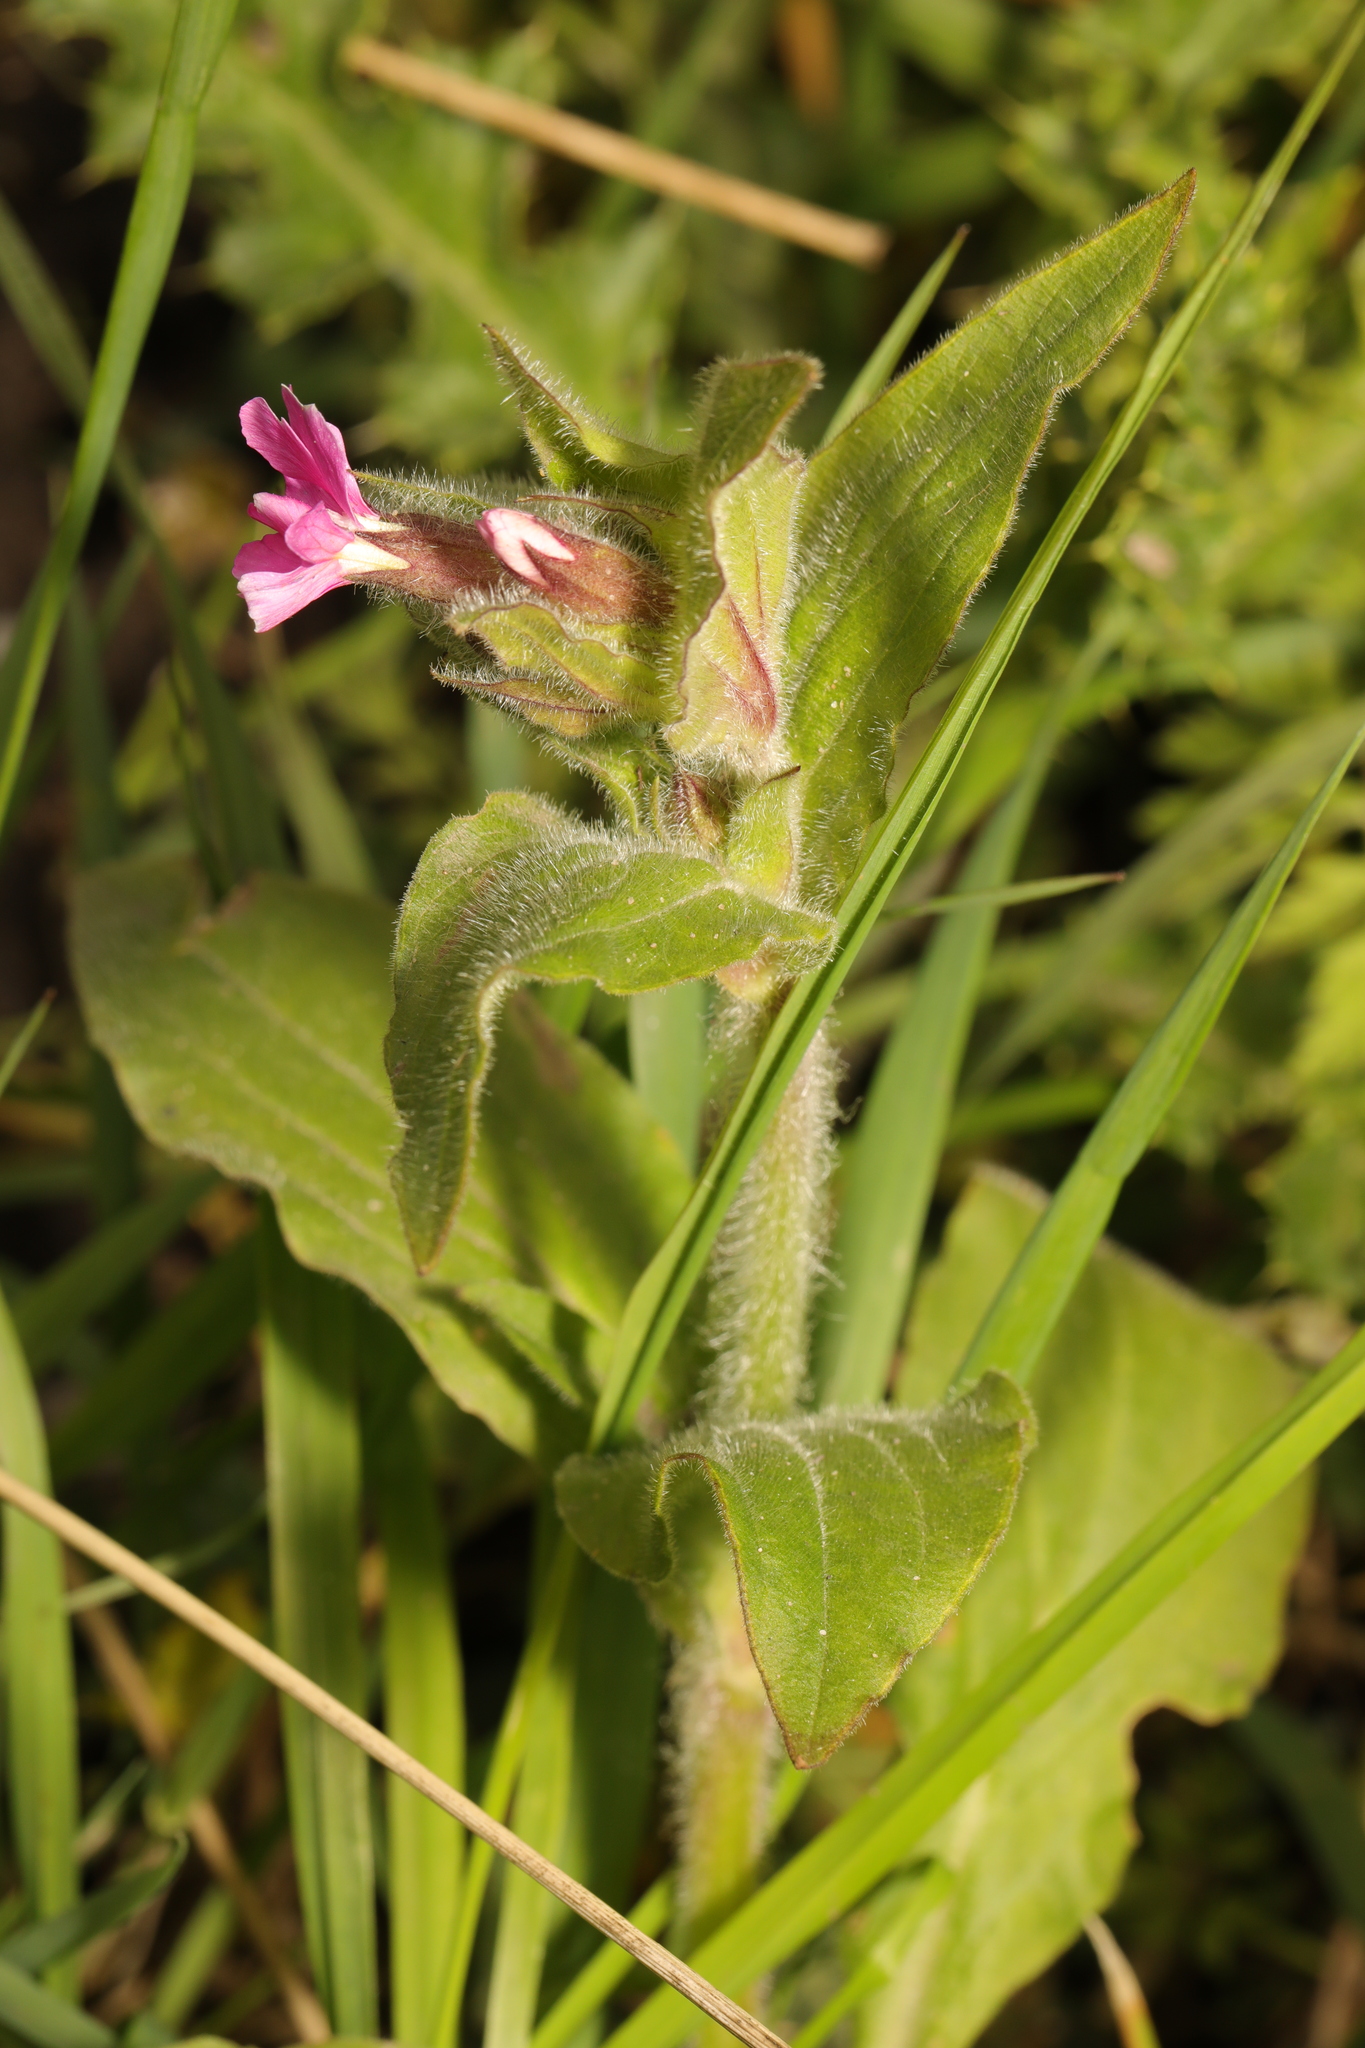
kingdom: Plantae
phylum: Tracheophyta
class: Magnoliopsida
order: Caryophyllales
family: Caryophyllaceae
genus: Silene
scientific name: Silene dioica
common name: Red campion
